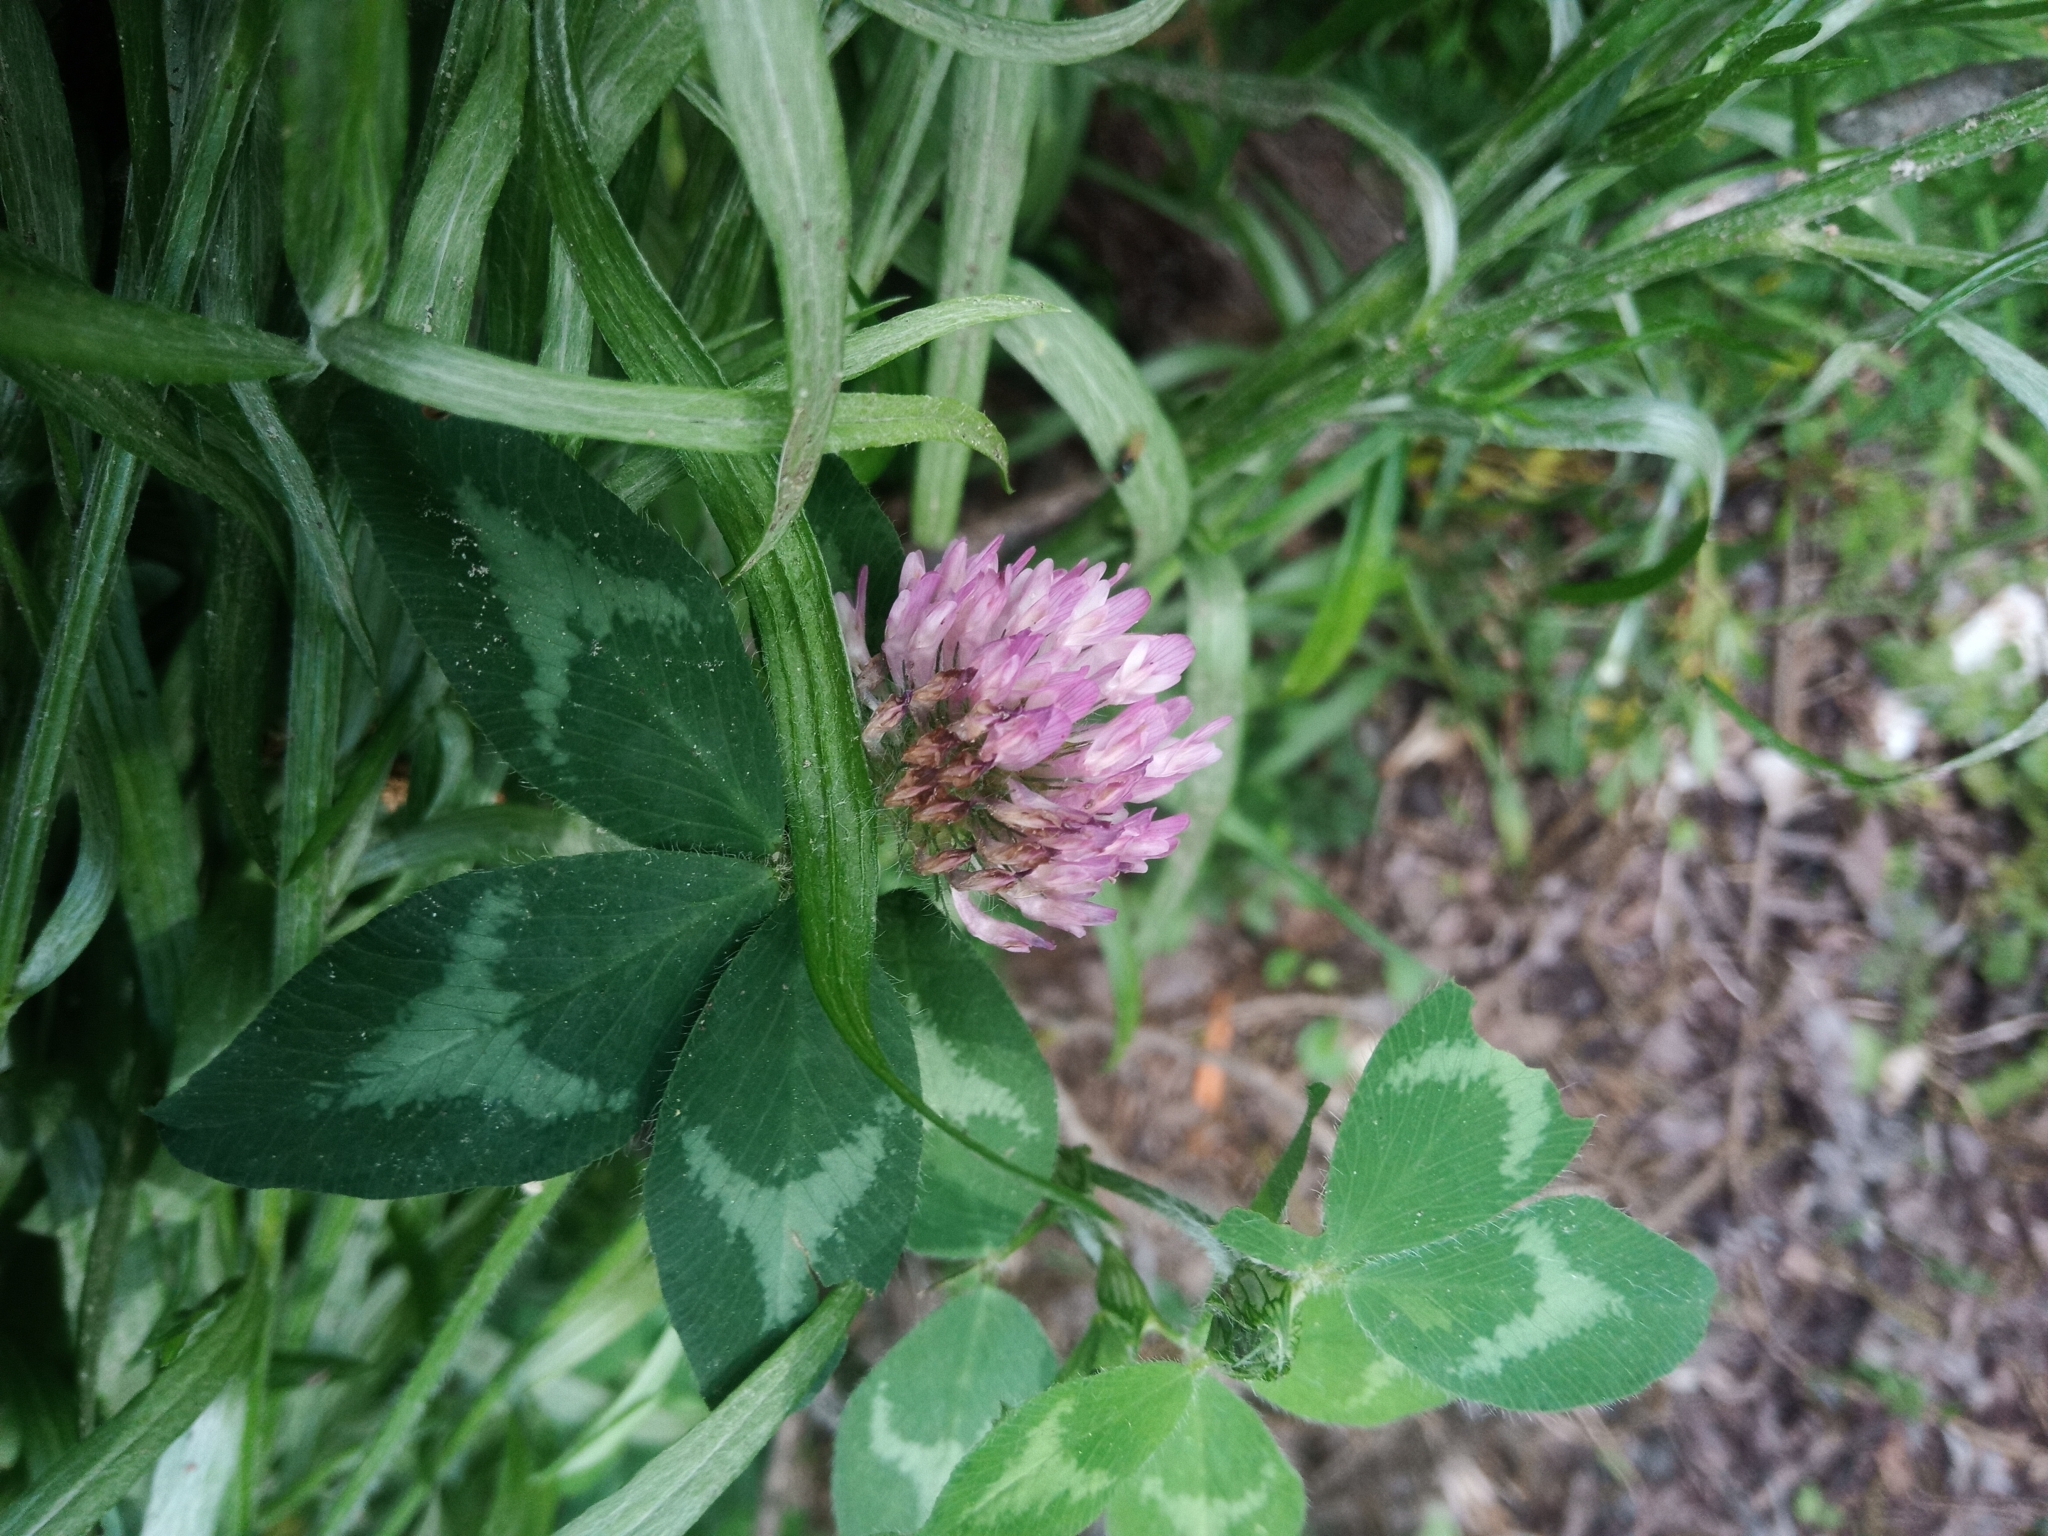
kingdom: Plantae
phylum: Tracheophyta
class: Magnoliopsida
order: Fabales
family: Fabaceae
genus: Trifolium
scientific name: Trifolium pratense
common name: Red clover
